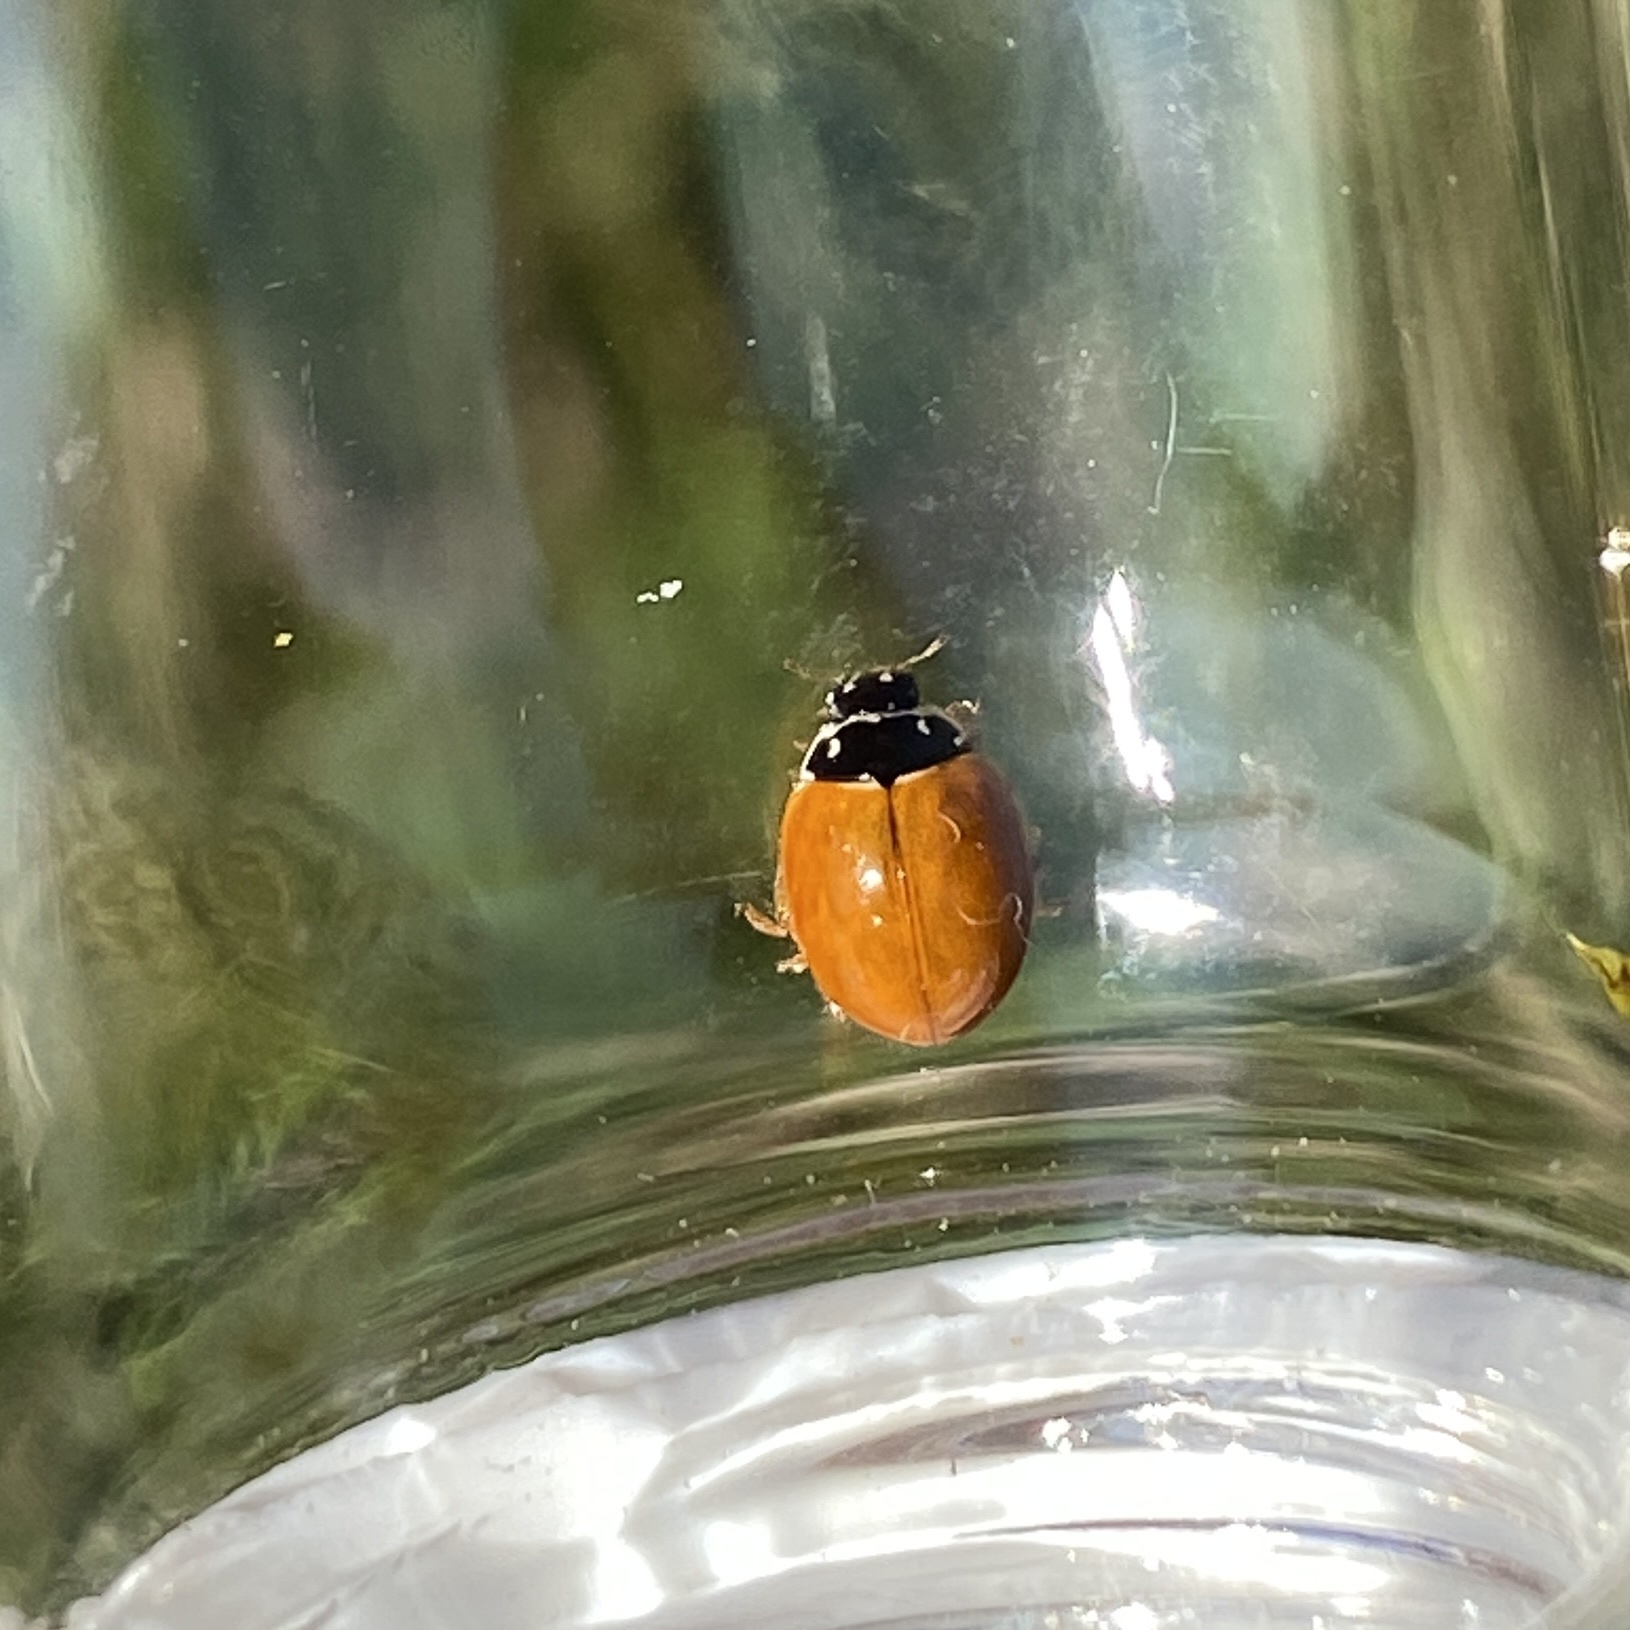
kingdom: Animalia
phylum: Arthropoda
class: Insecta
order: Coleoptera
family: Coccinellidae
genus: Cycloneda
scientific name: Cycloneda munda
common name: Polished lady beetle
